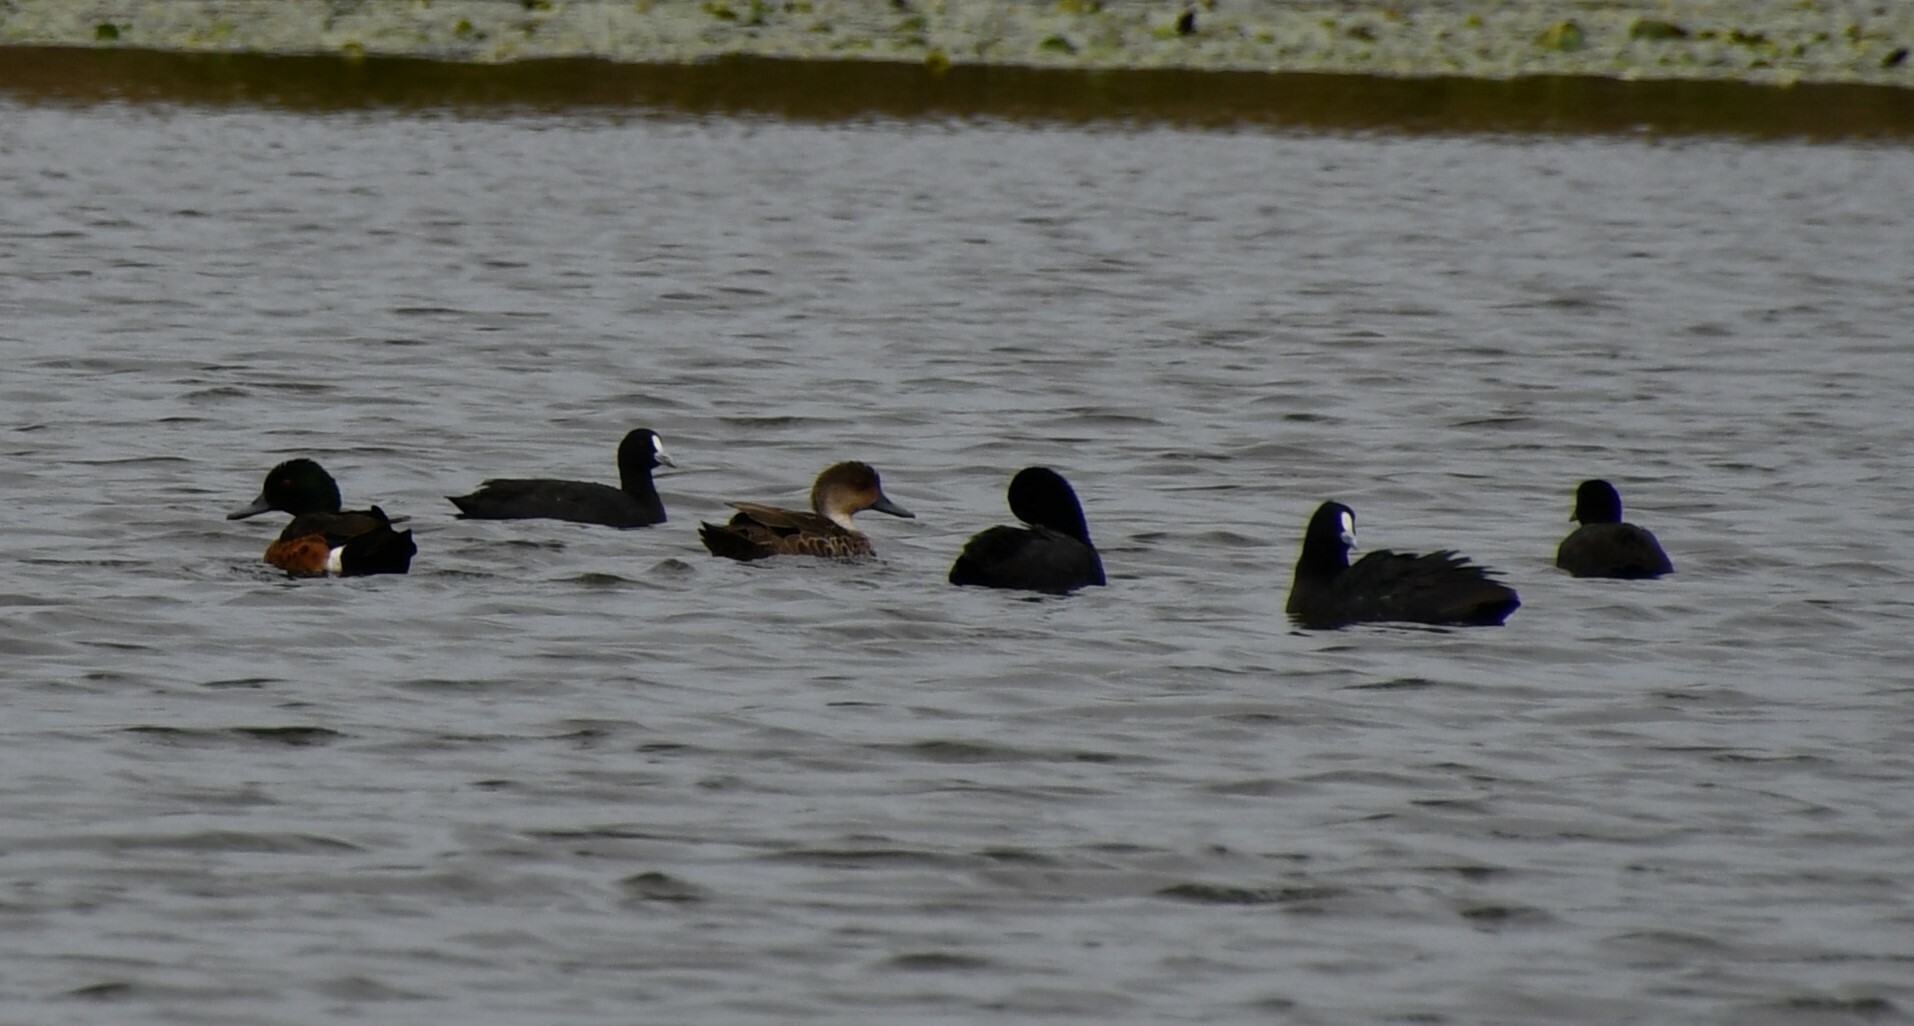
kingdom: Animalia
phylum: Chordata
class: Aves
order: Anseriformes
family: Anatidae
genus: Anas
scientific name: Anas castanea
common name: Chestnut teal
